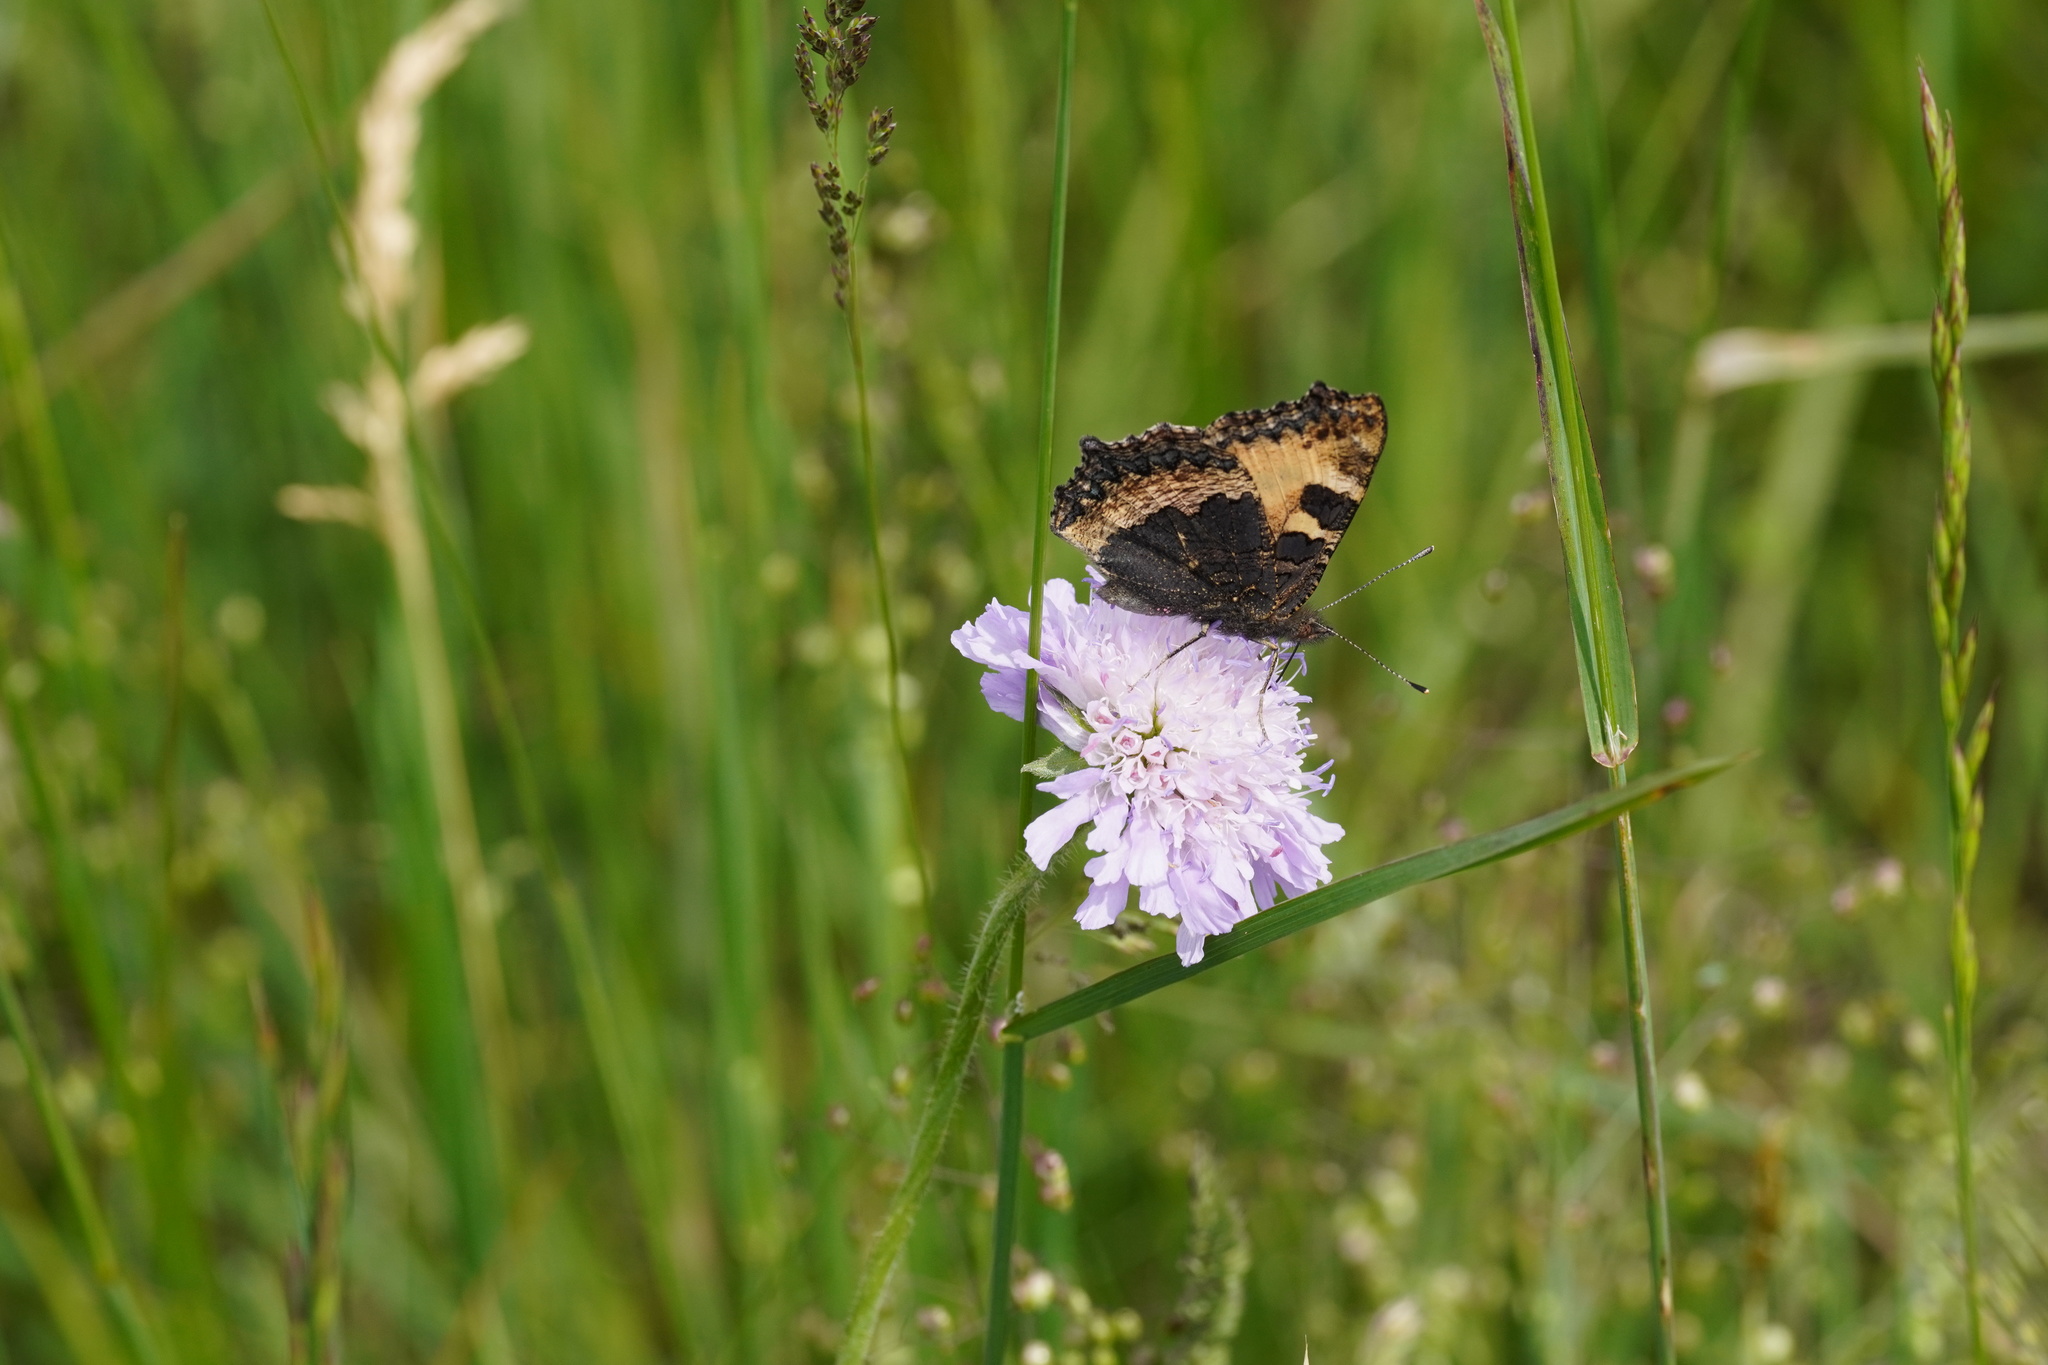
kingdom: Animalia
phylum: Arthropoda
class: Insecta
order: Lepidoptera
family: Nymphalidae
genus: Aglais
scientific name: Aglais urticae
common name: Small tortoiseshell
